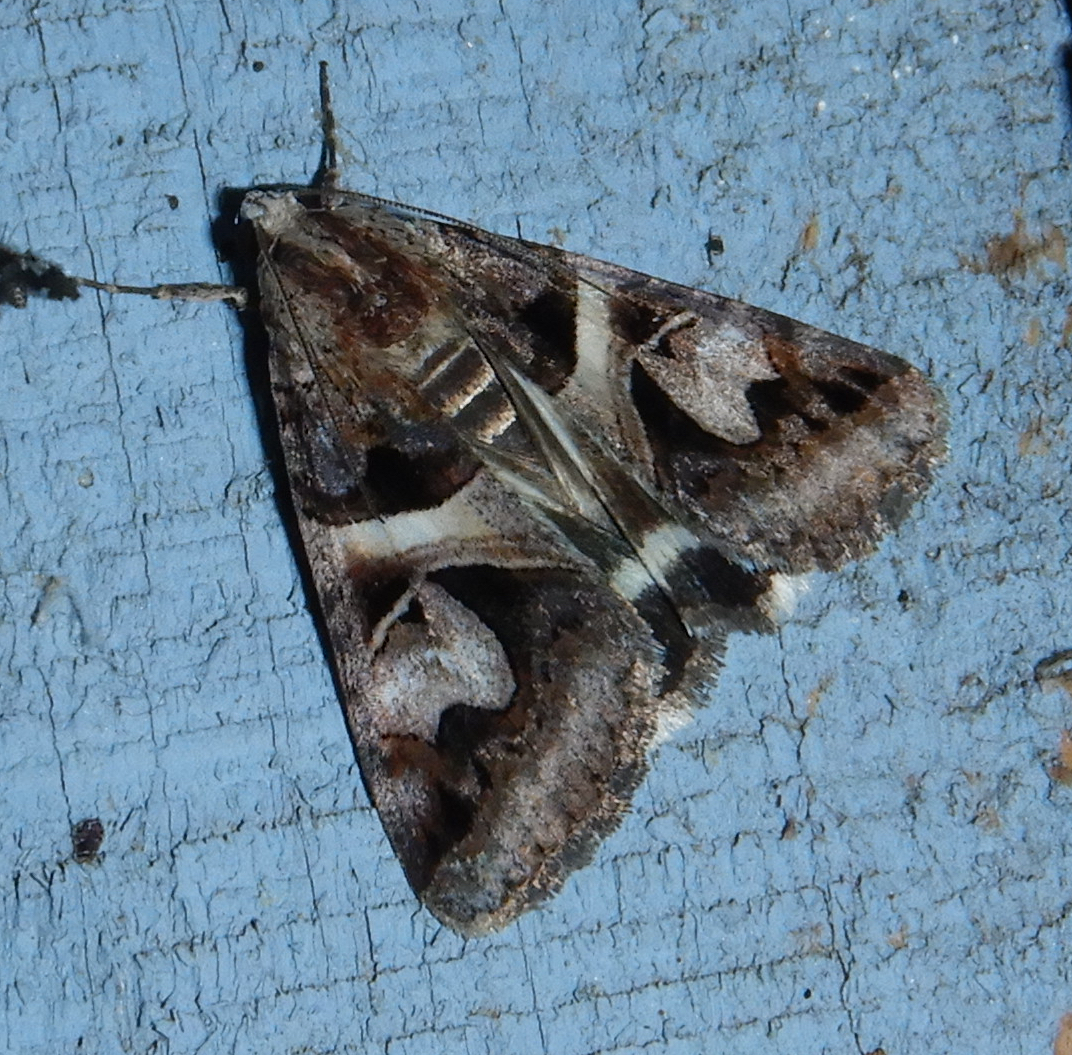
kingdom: Animalia
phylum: Arthropoda
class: Insecta
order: Lepidoptera
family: Erebidae
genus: Drasteria
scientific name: Drasteria grandirena
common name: Figure-seven moth
